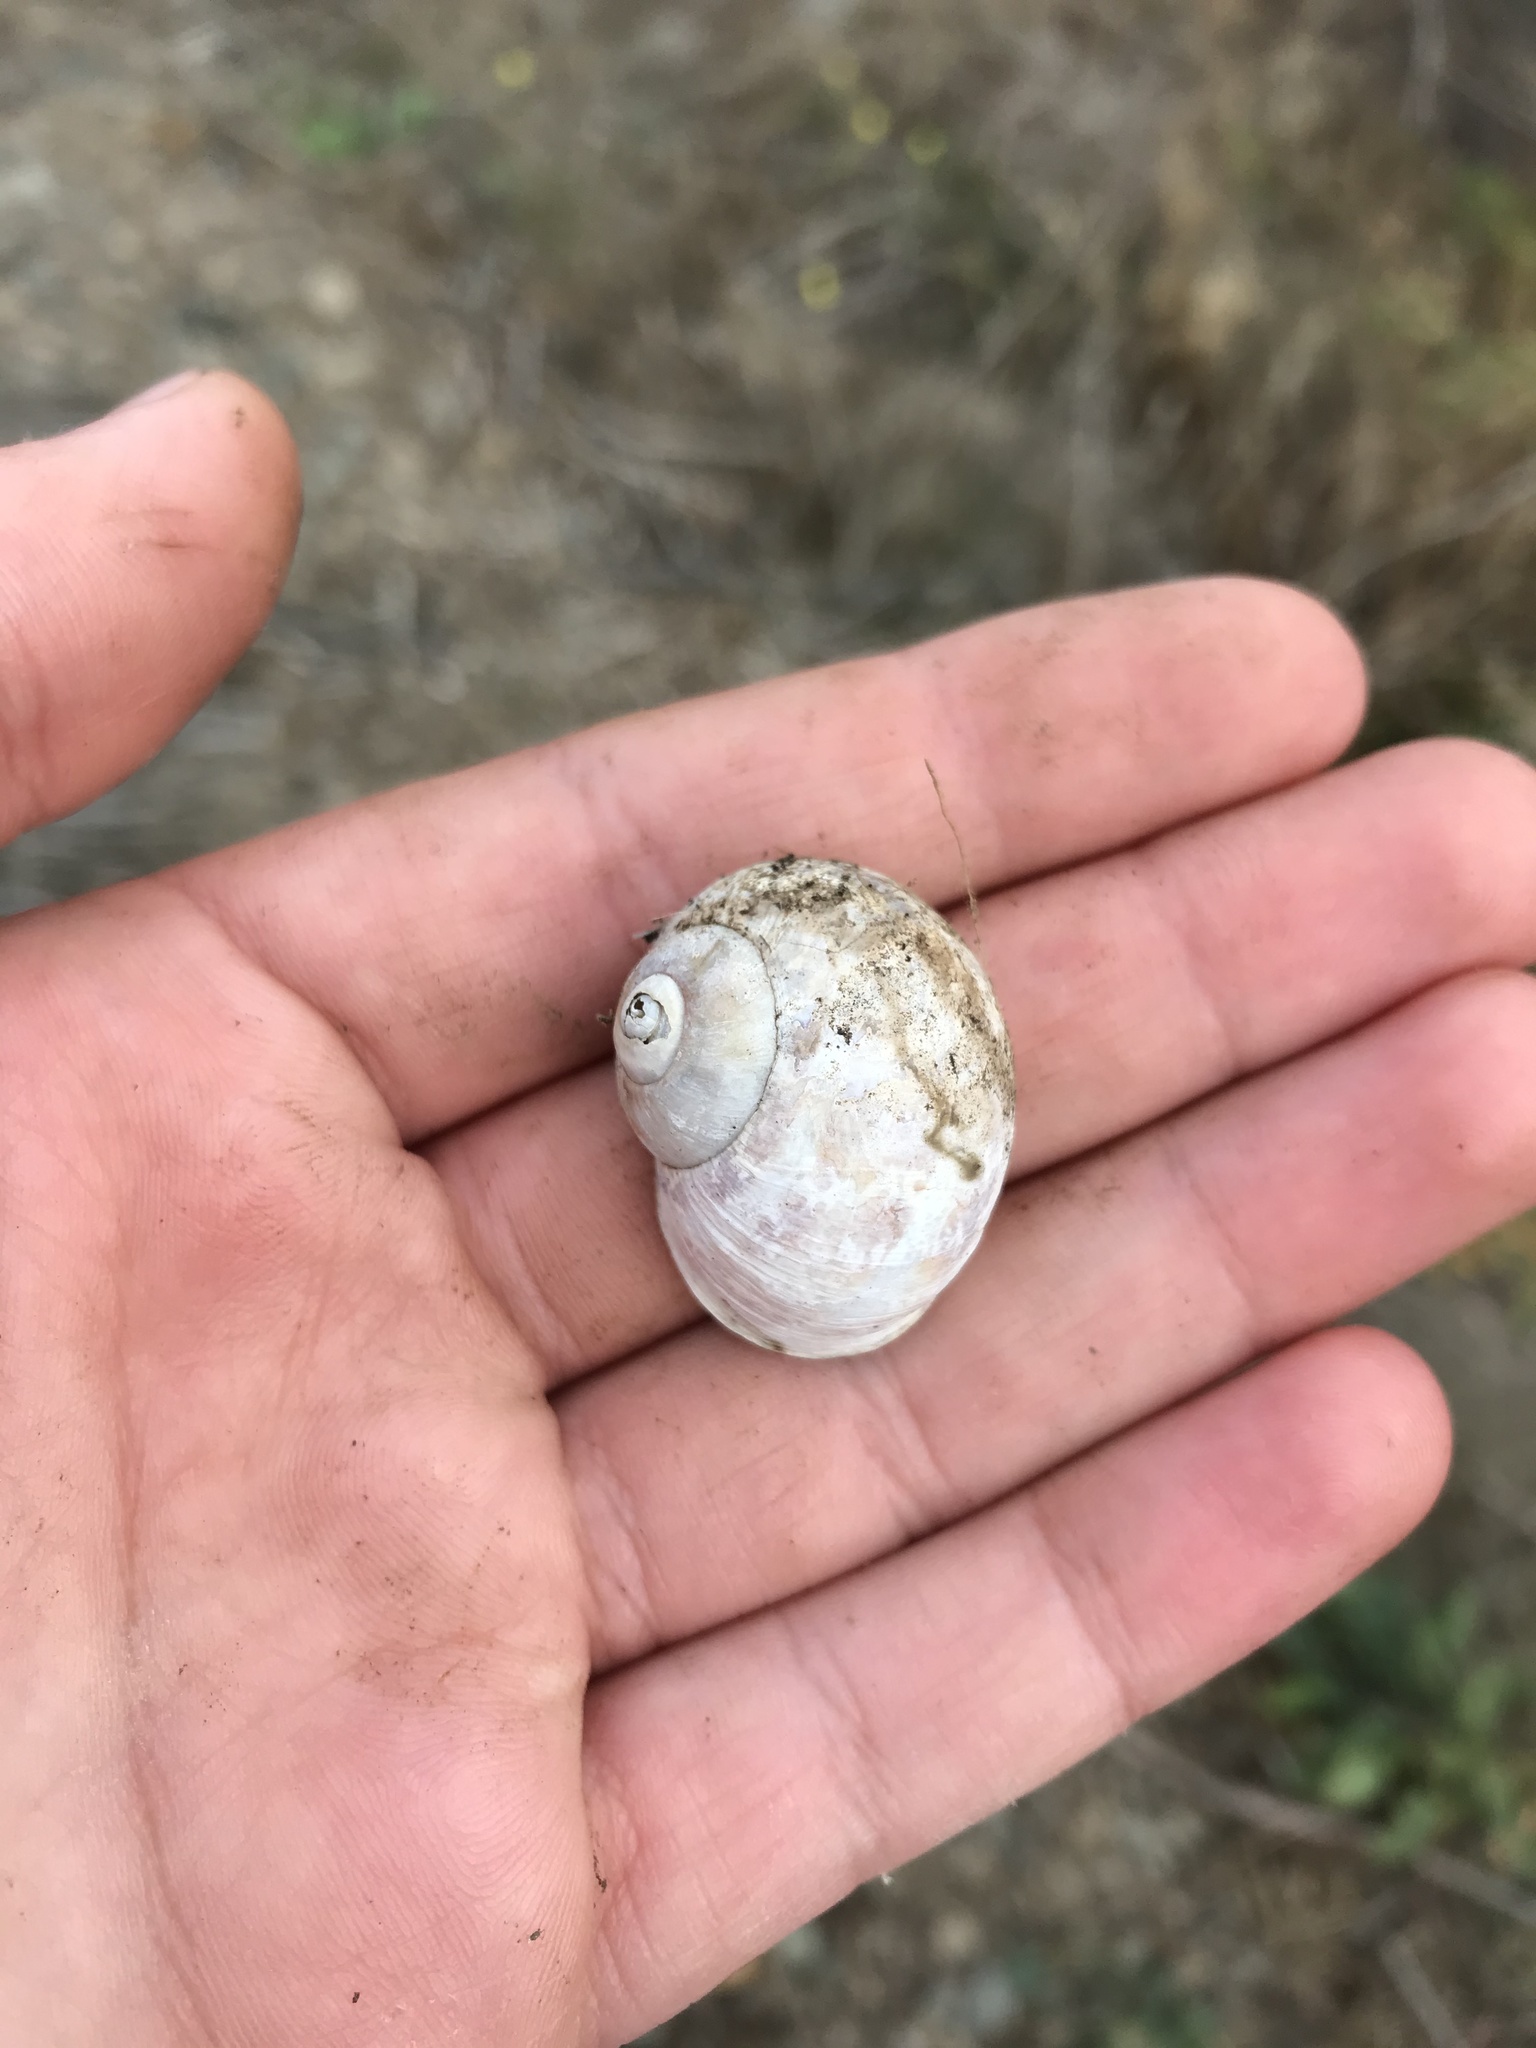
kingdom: Animalia
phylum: Mollusca
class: Gastropoda
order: Stylommatophora
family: Helicidae
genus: Cornu
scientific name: Cornu aspersum
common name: Brown garden snail
